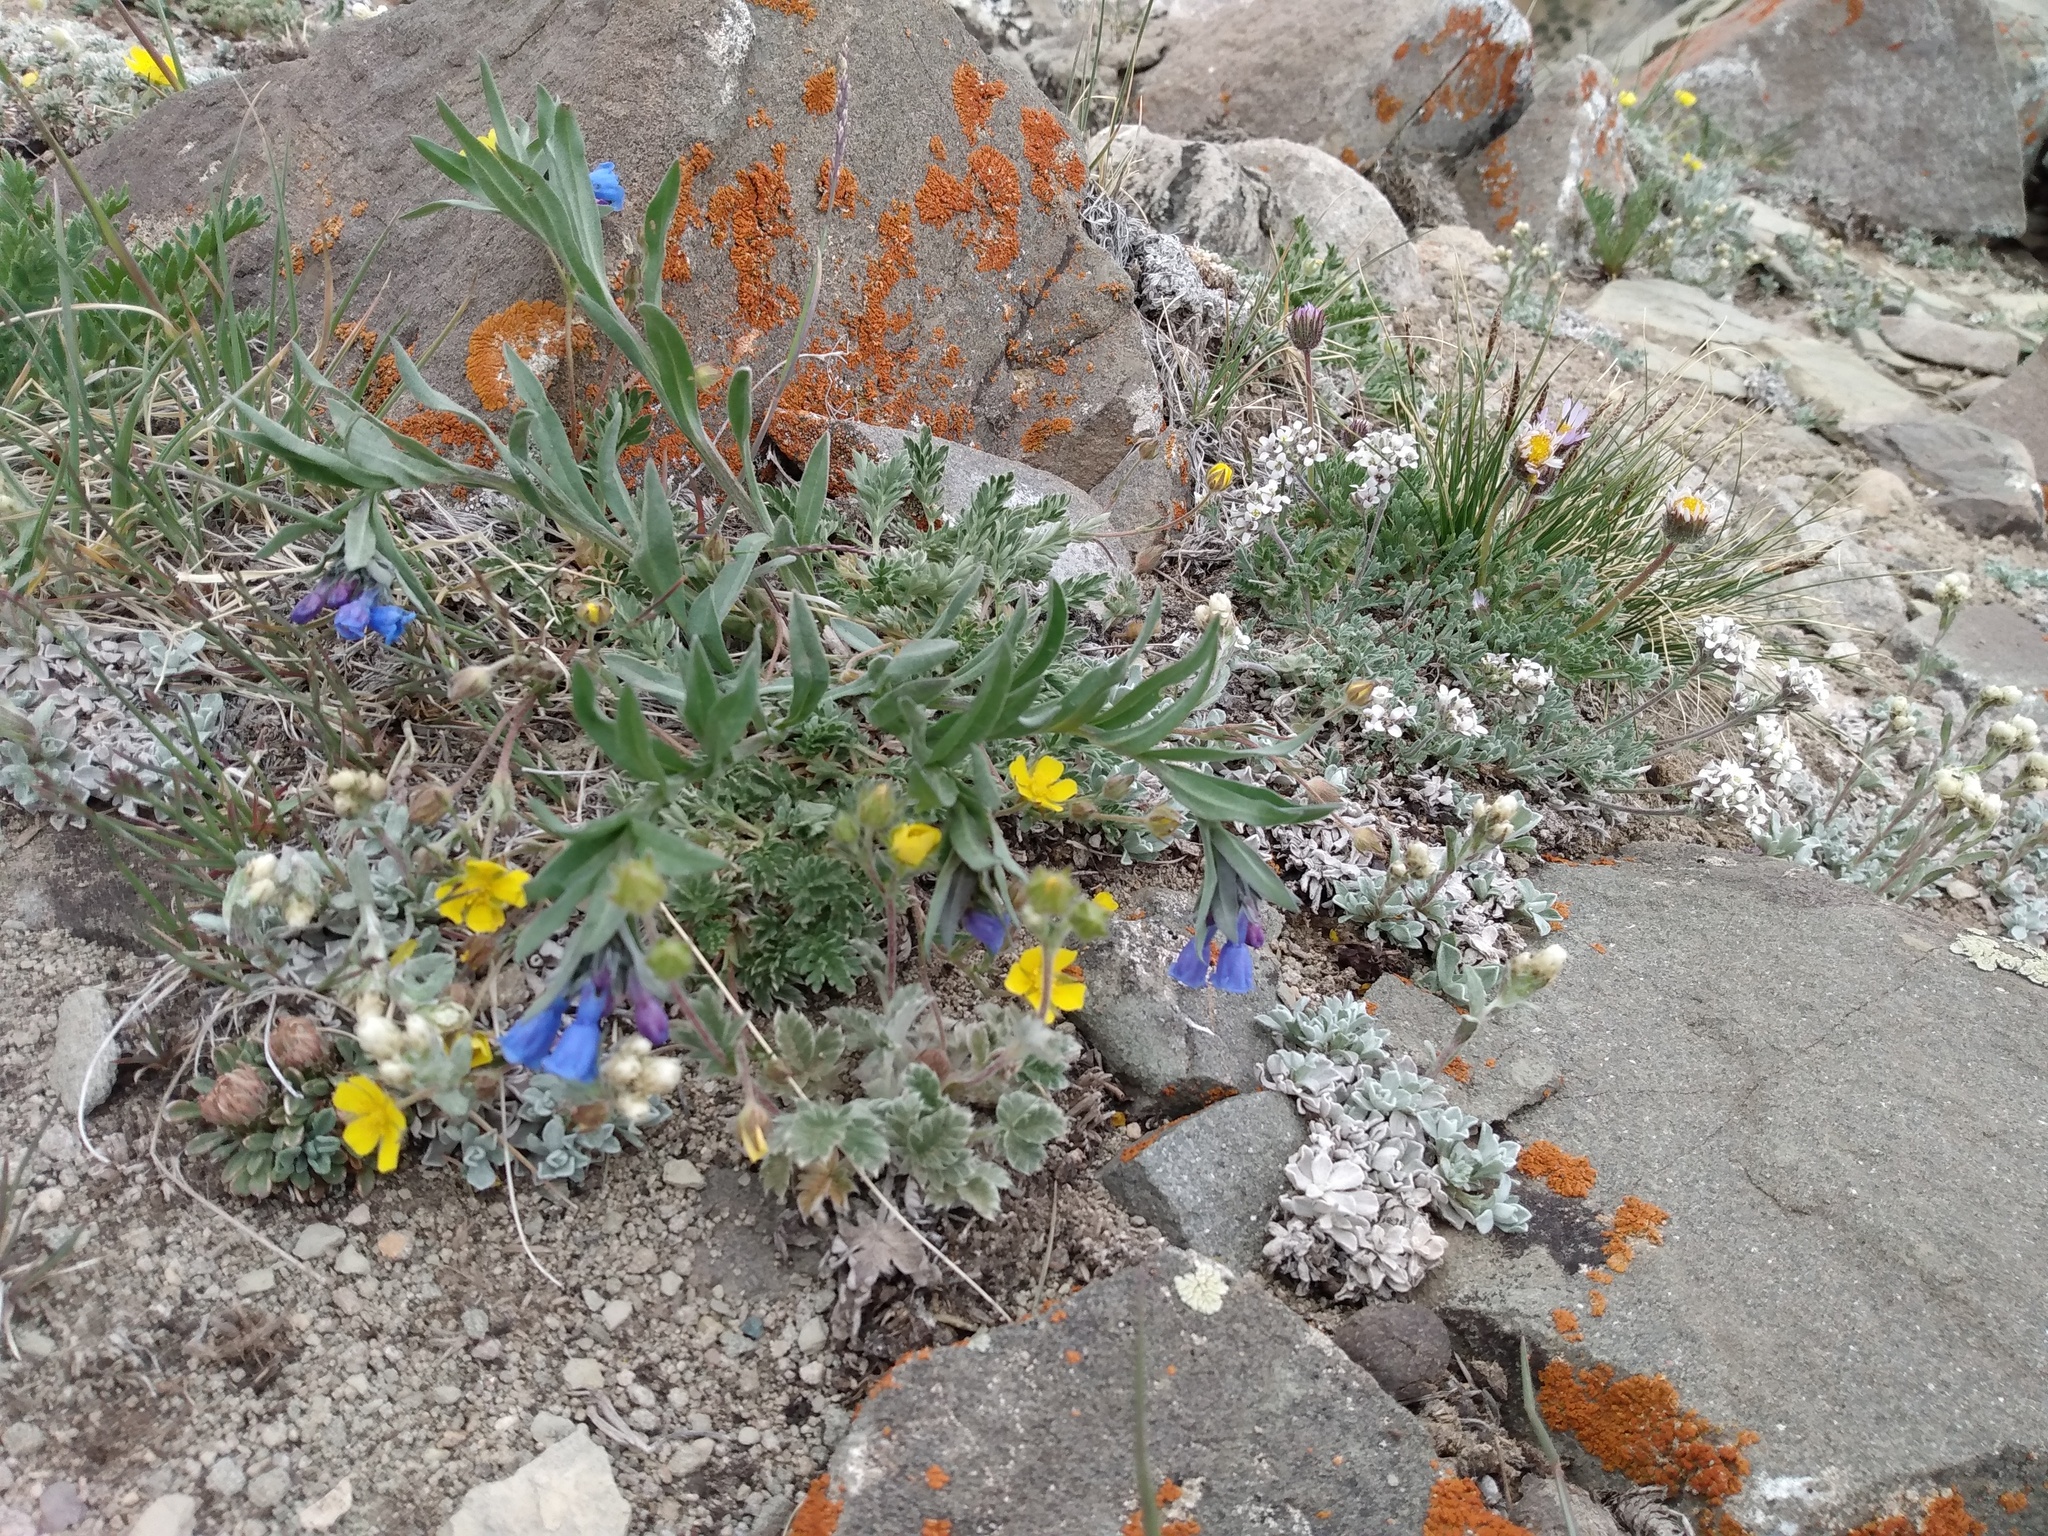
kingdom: Plantae
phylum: Tracheophyta
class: Magnoliopsida
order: Boraginales
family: Boraginaceae
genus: Mertensia
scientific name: Mertensia lanceolata
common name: Lance-leaved bluebells
